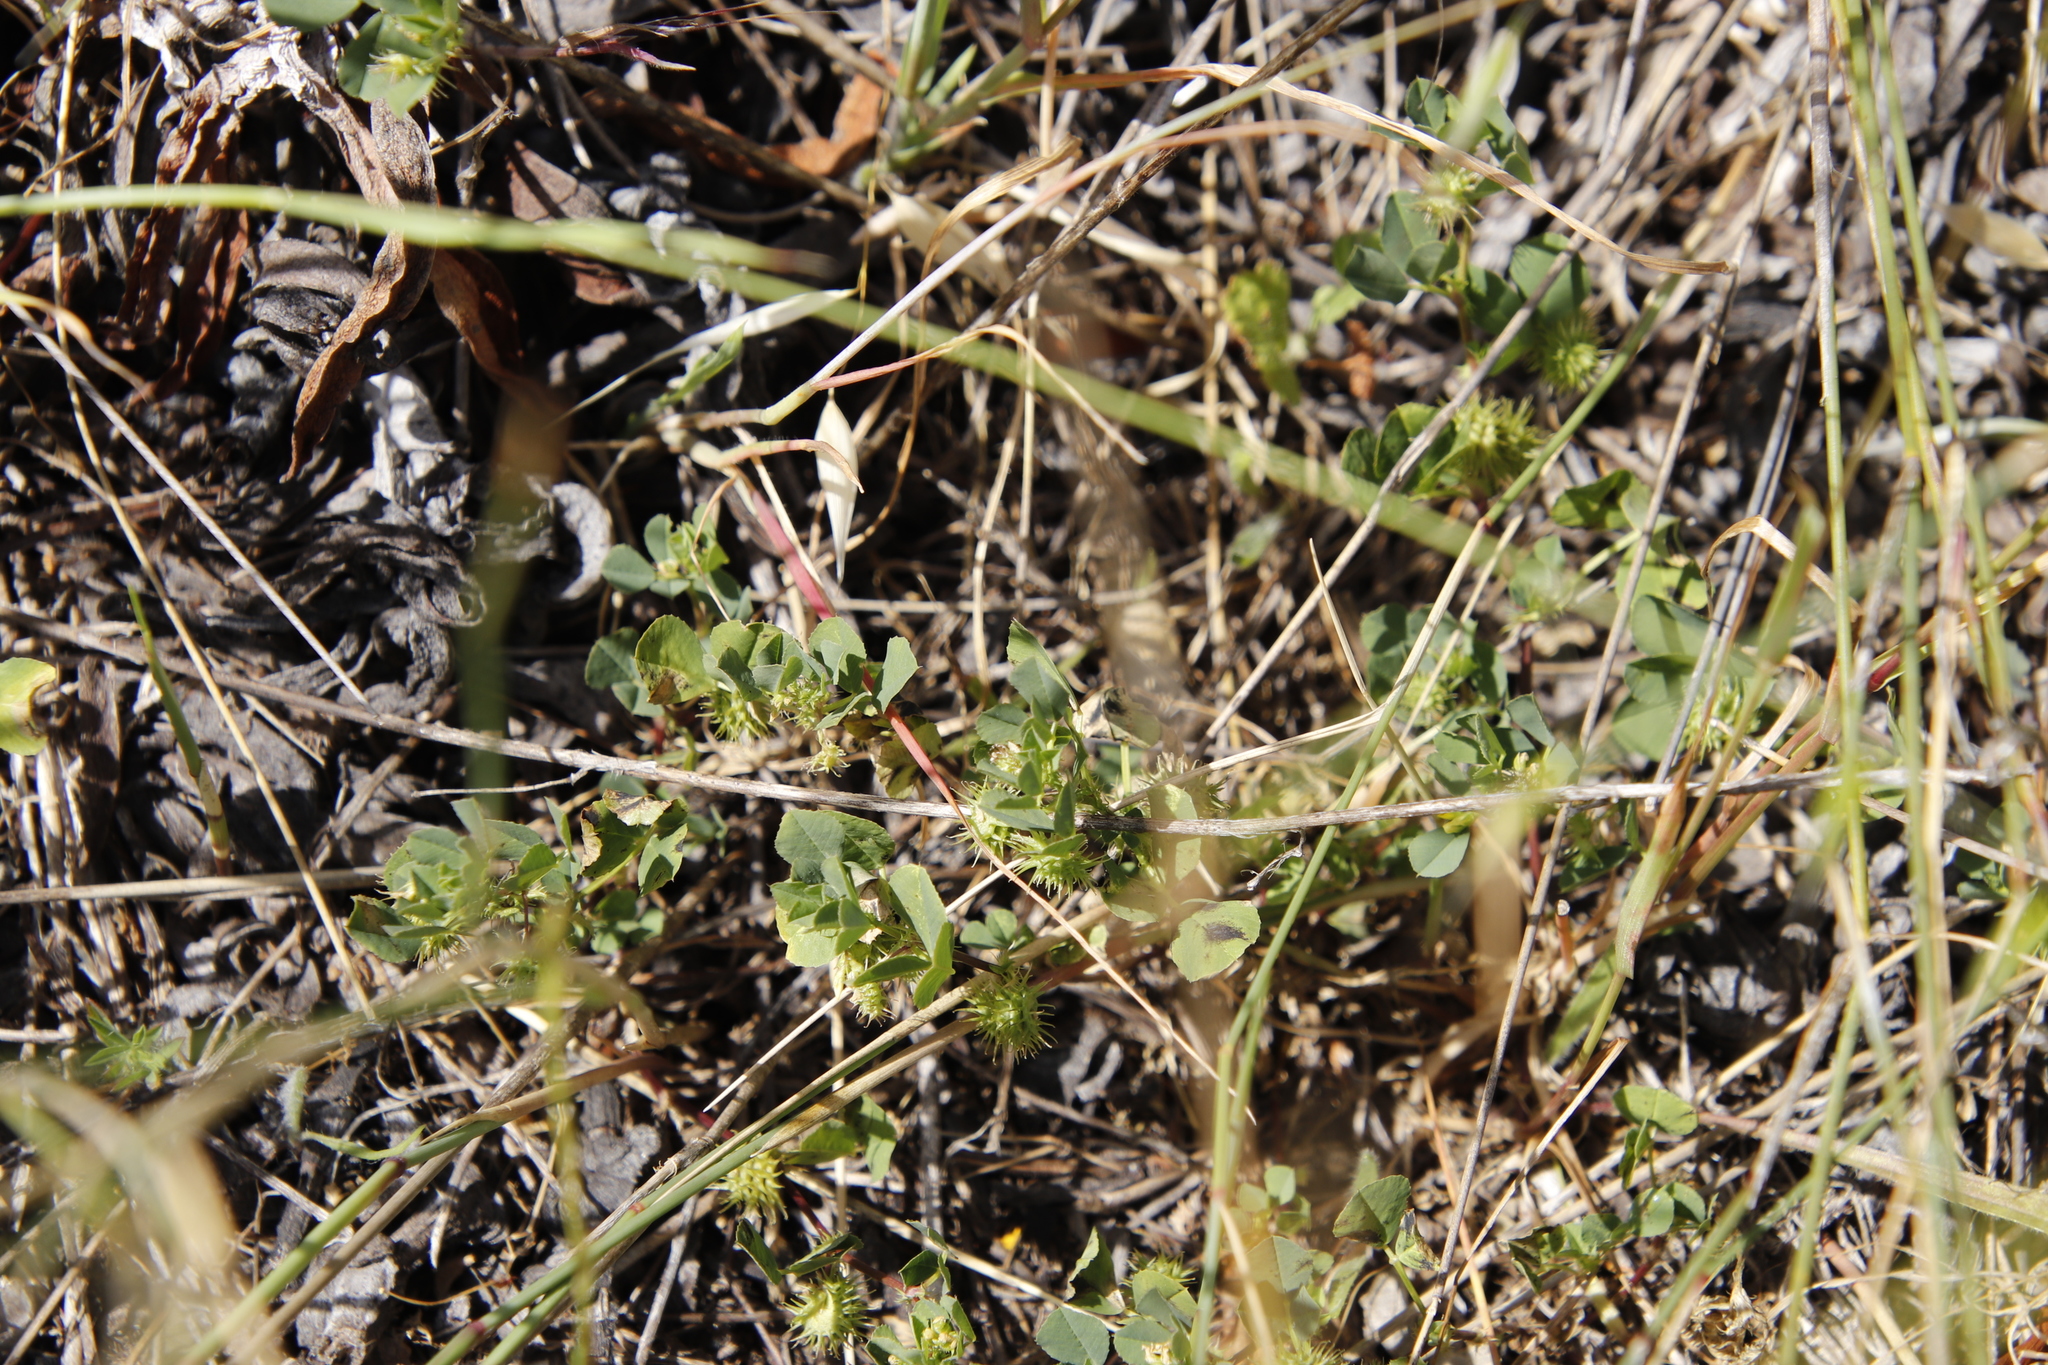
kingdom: Plantae
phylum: Tracheophyta
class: Magnoliopsida
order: Fabales
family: Fabaceae
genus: Medicago
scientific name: Medicago polymorpha
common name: Burclover
